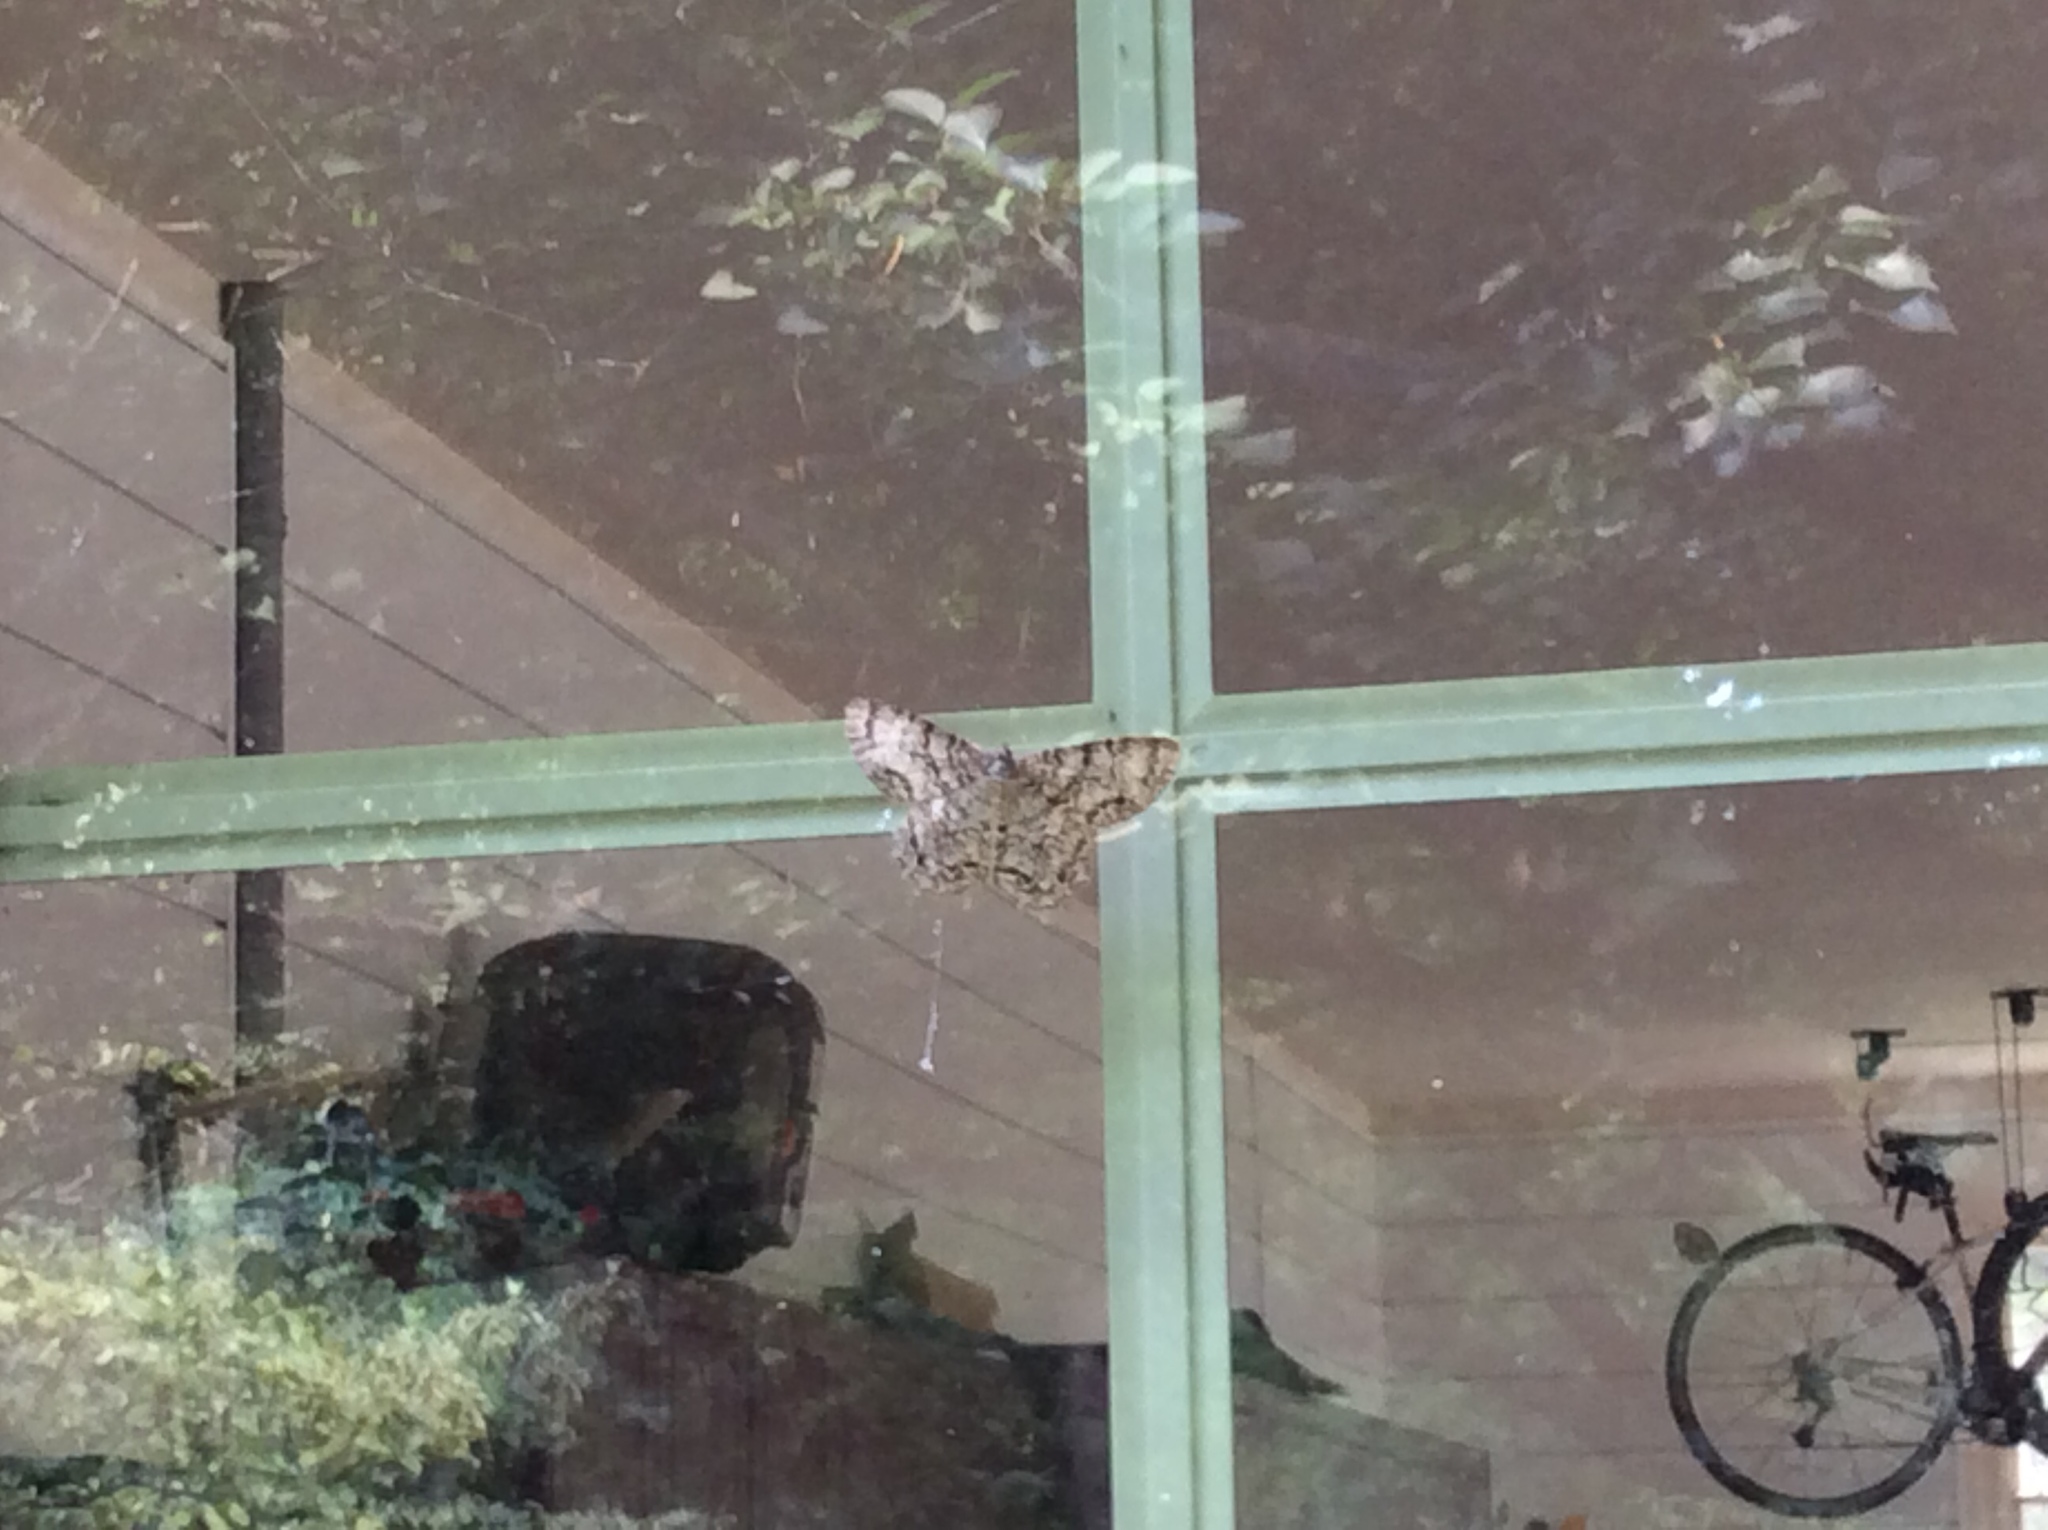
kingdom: Animalia
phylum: Arthropoda
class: Insecta
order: Lepidoptera
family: Geometridae
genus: Epimecis
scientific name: Epimecis hortaria
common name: Tulip-tree beauty
